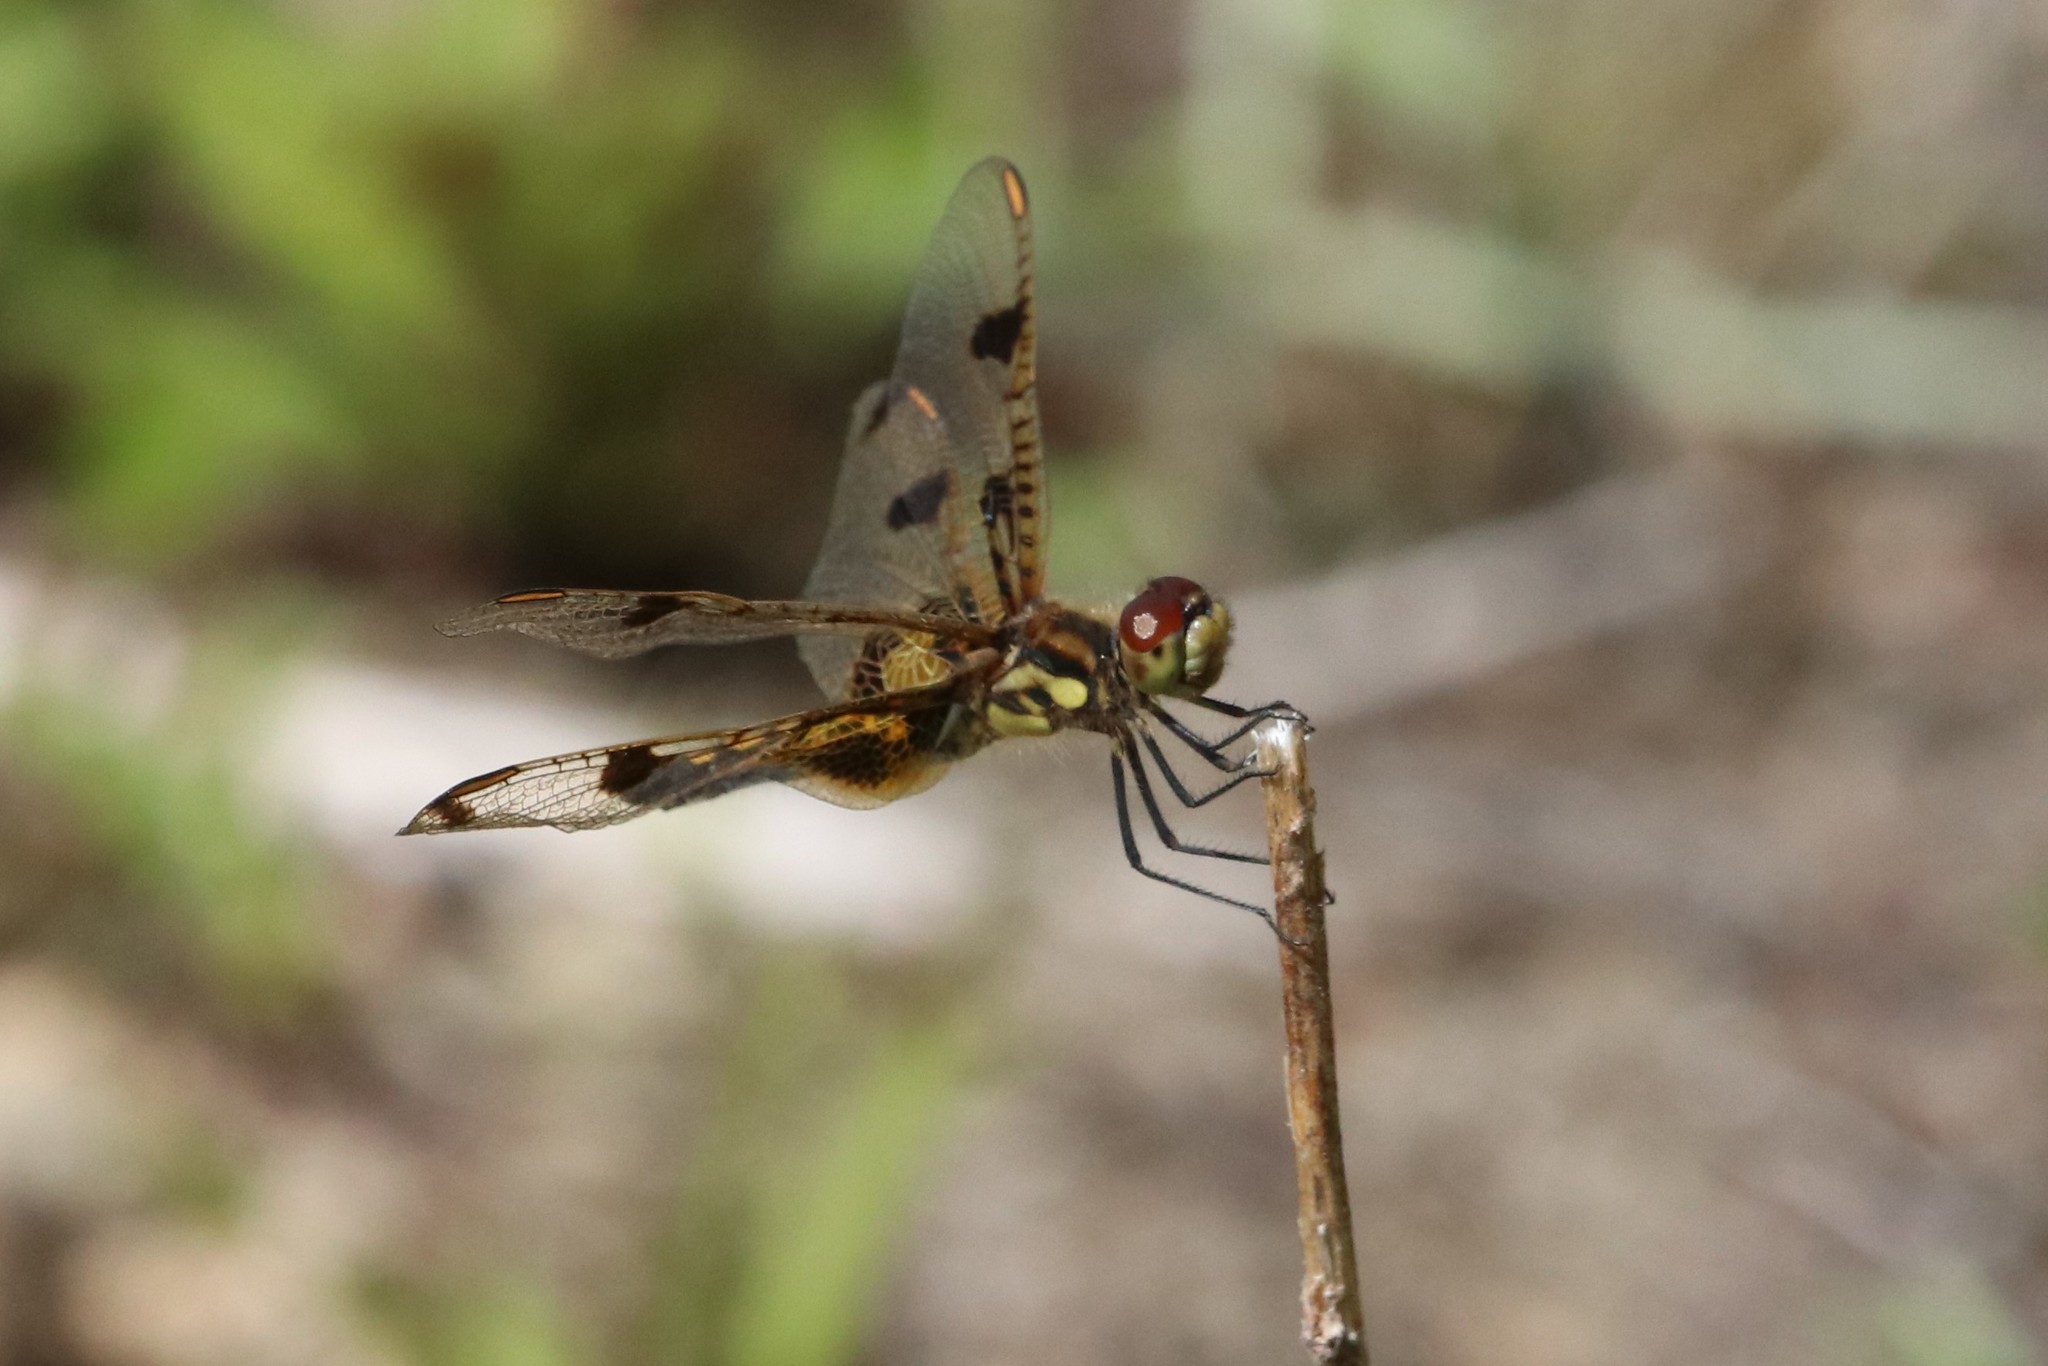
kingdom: Animalia
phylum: Arthropoda
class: Insecta
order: Odonata
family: Libellulidae
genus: Celithemis
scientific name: Celithemis elisa
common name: Calico pennant
